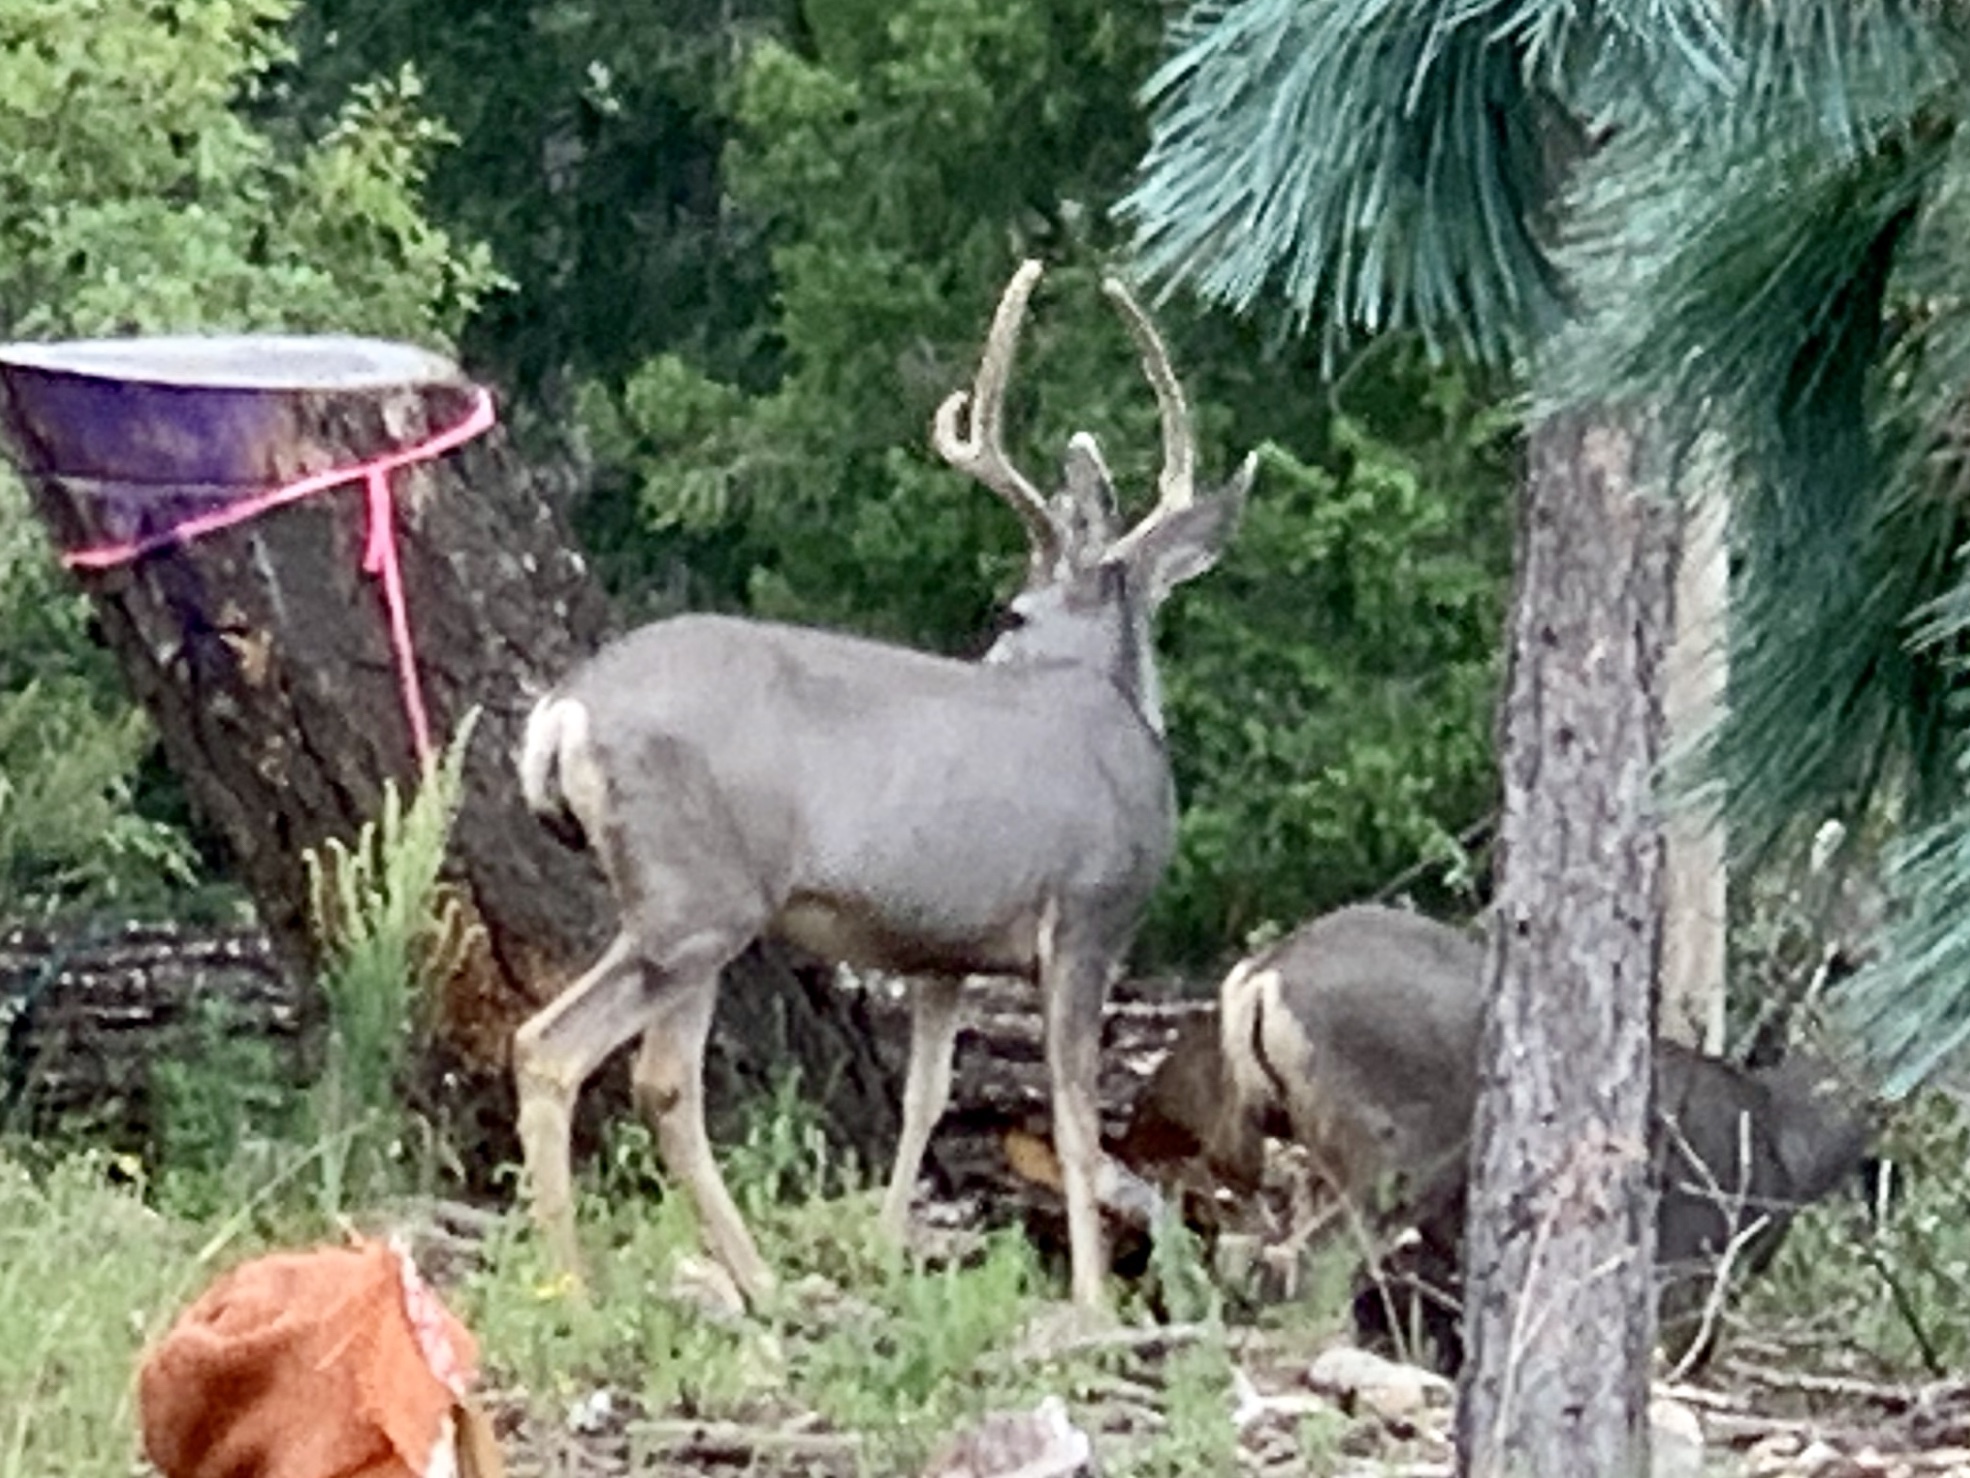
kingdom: Animalia
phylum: Chordata
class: Mammalia
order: Artiodactyla
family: Cervidae
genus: Odocoileus
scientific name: Odocoileus hemionus
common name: Mule deer
